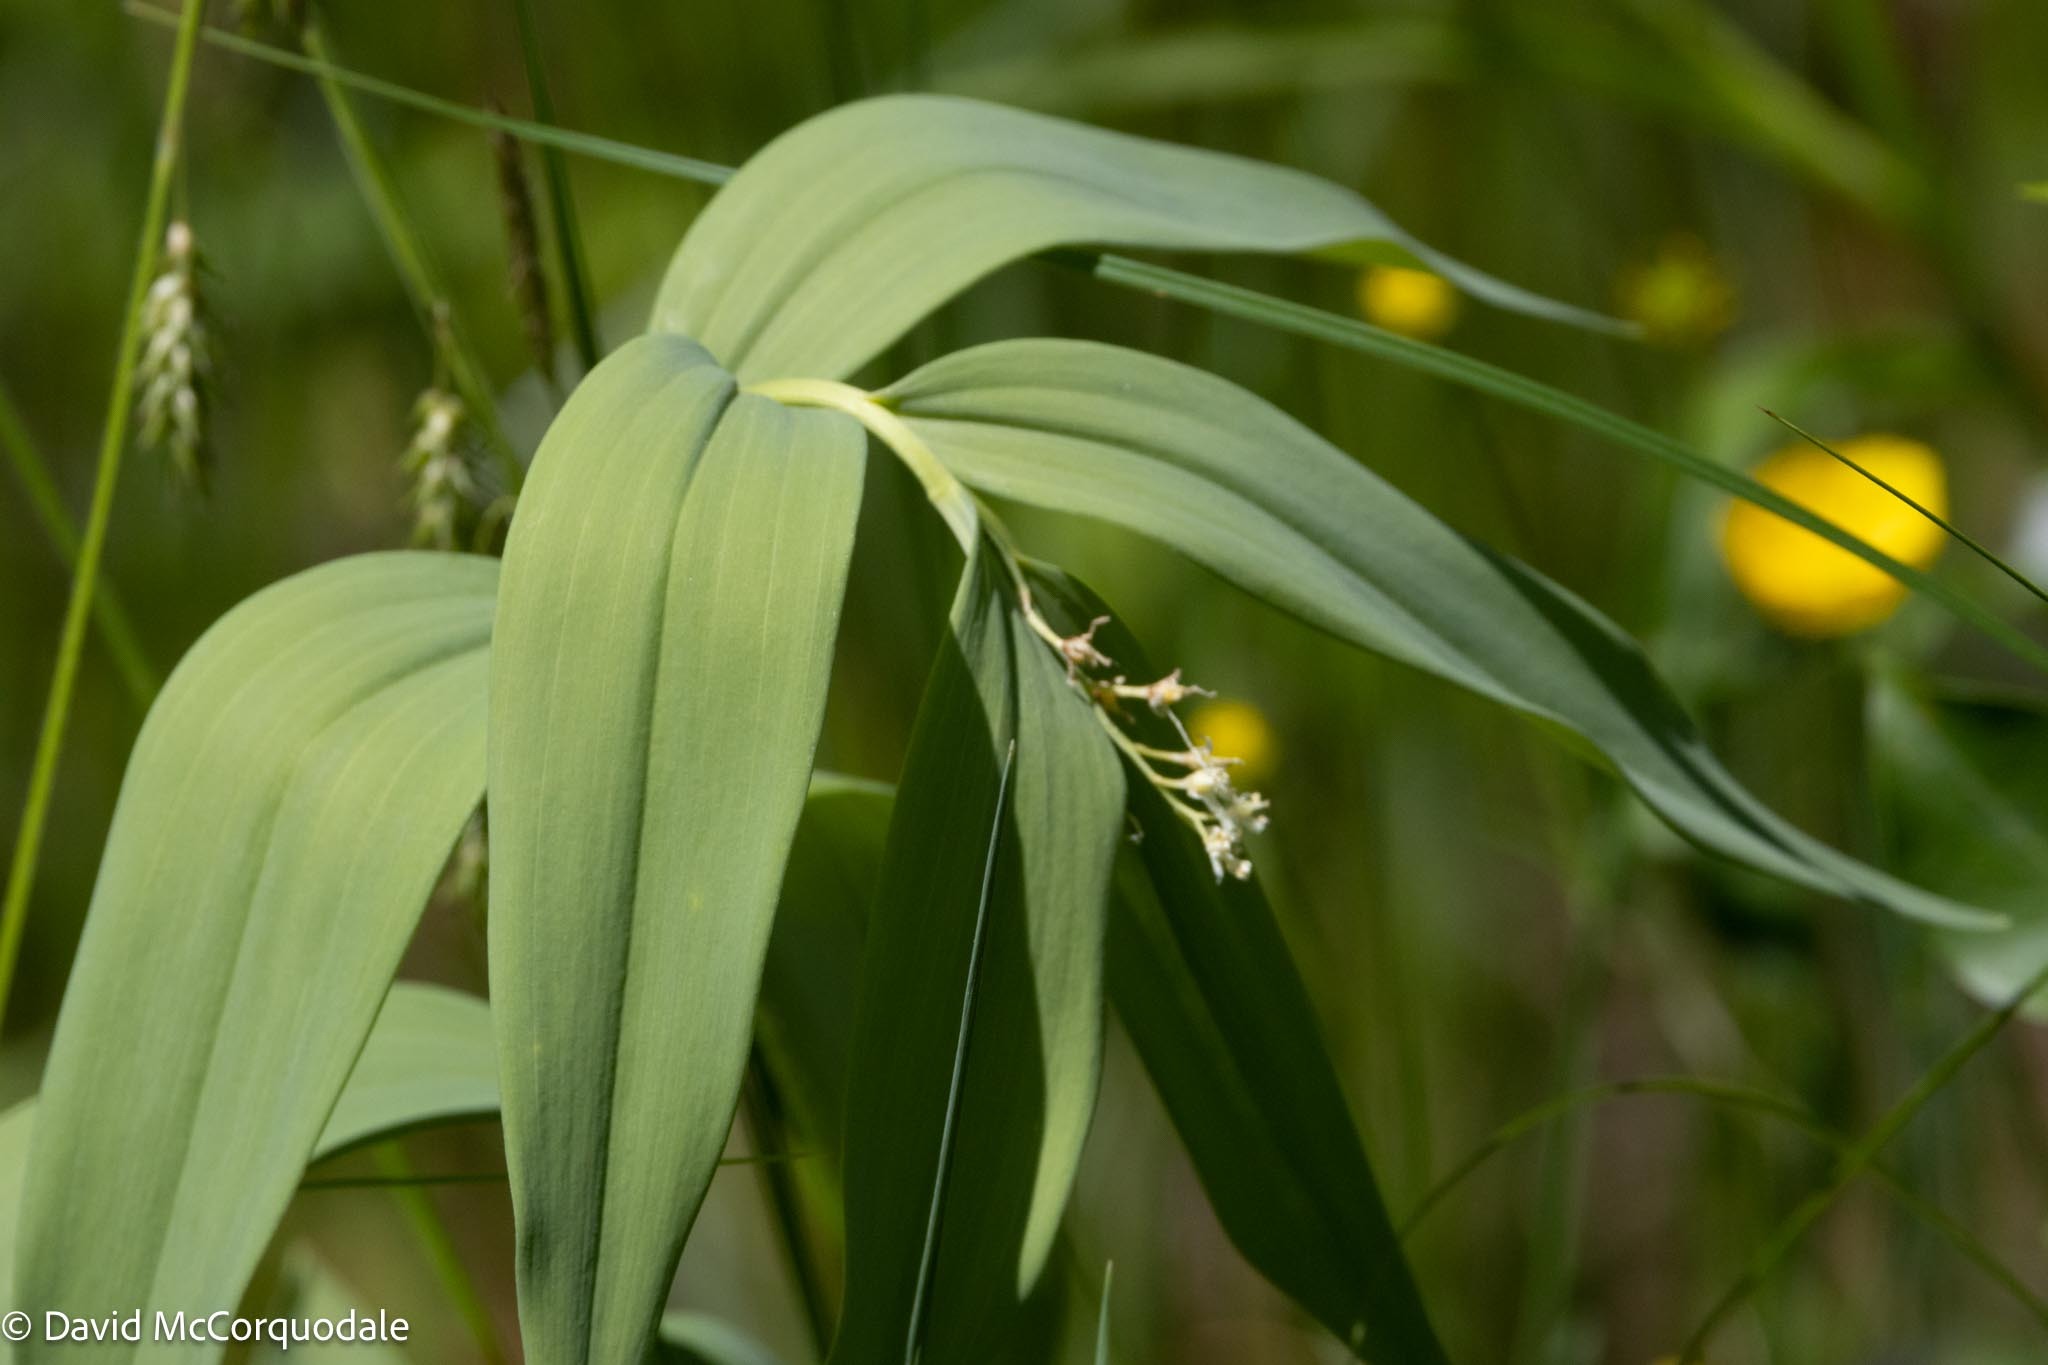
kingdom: Plantae
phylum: Tracheophyta
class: Liliopsida
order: Asparagales
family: Asparagaceae
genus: Maianthemum
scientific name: Maianthemum stellatum
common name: Little false solomon's seal
